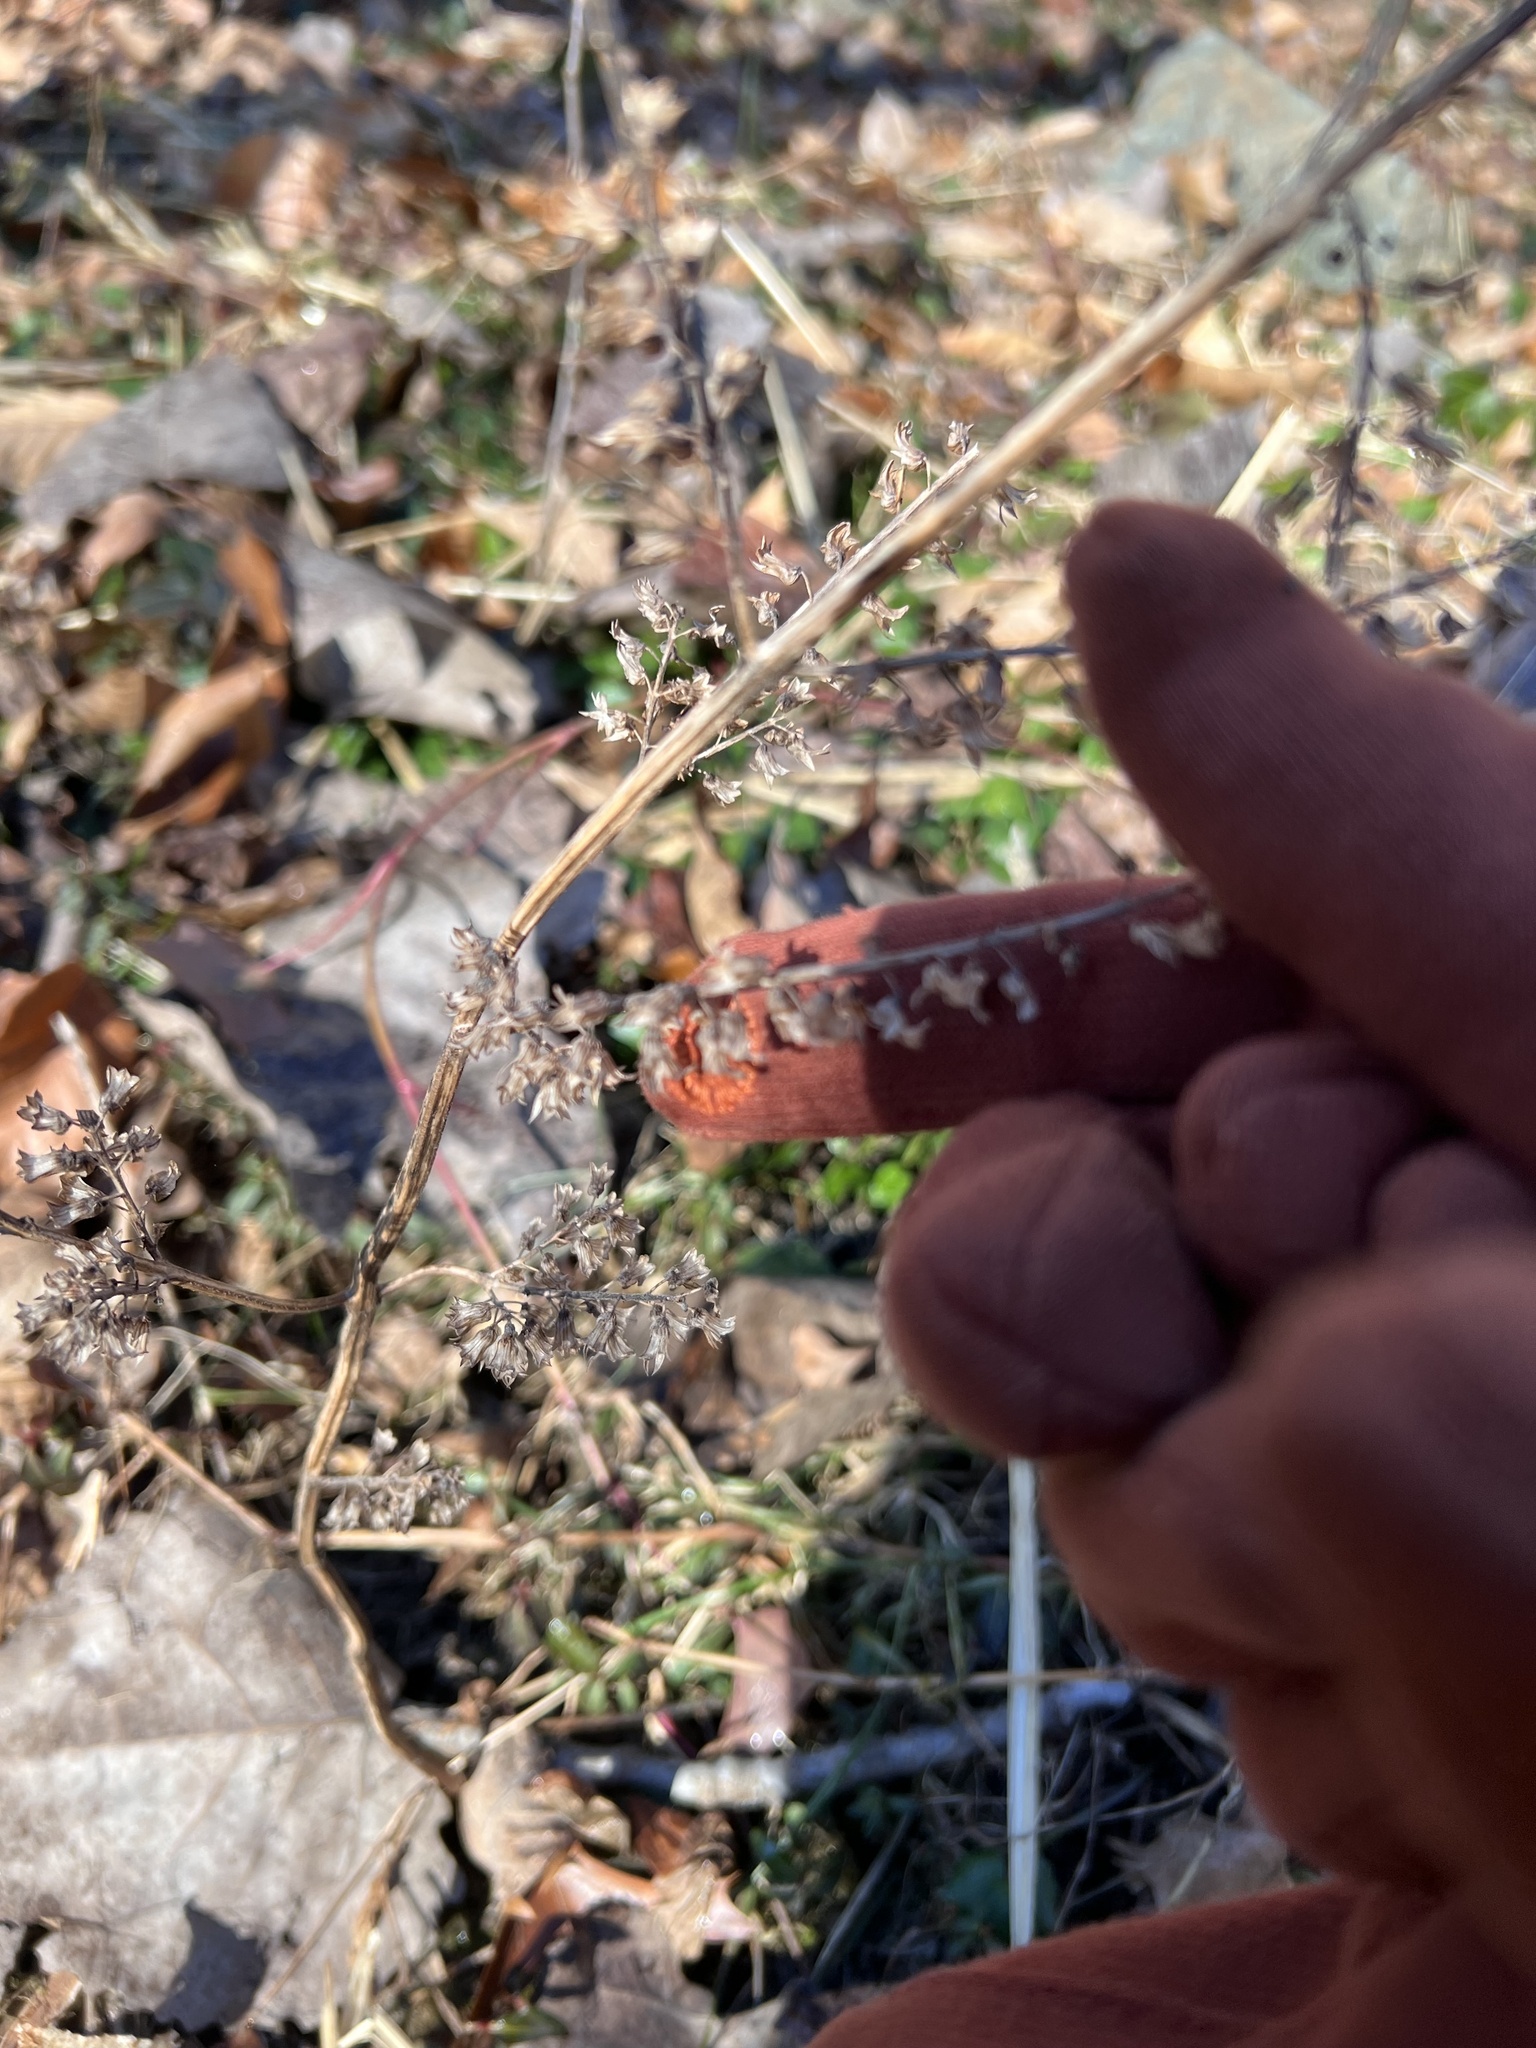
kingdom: Plantae
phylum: Tracheophyta
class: Magnoliopsida
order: Lamiales
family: Lamiaceae
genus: Perilla
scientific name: Perilla frutescens
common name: Perilla
